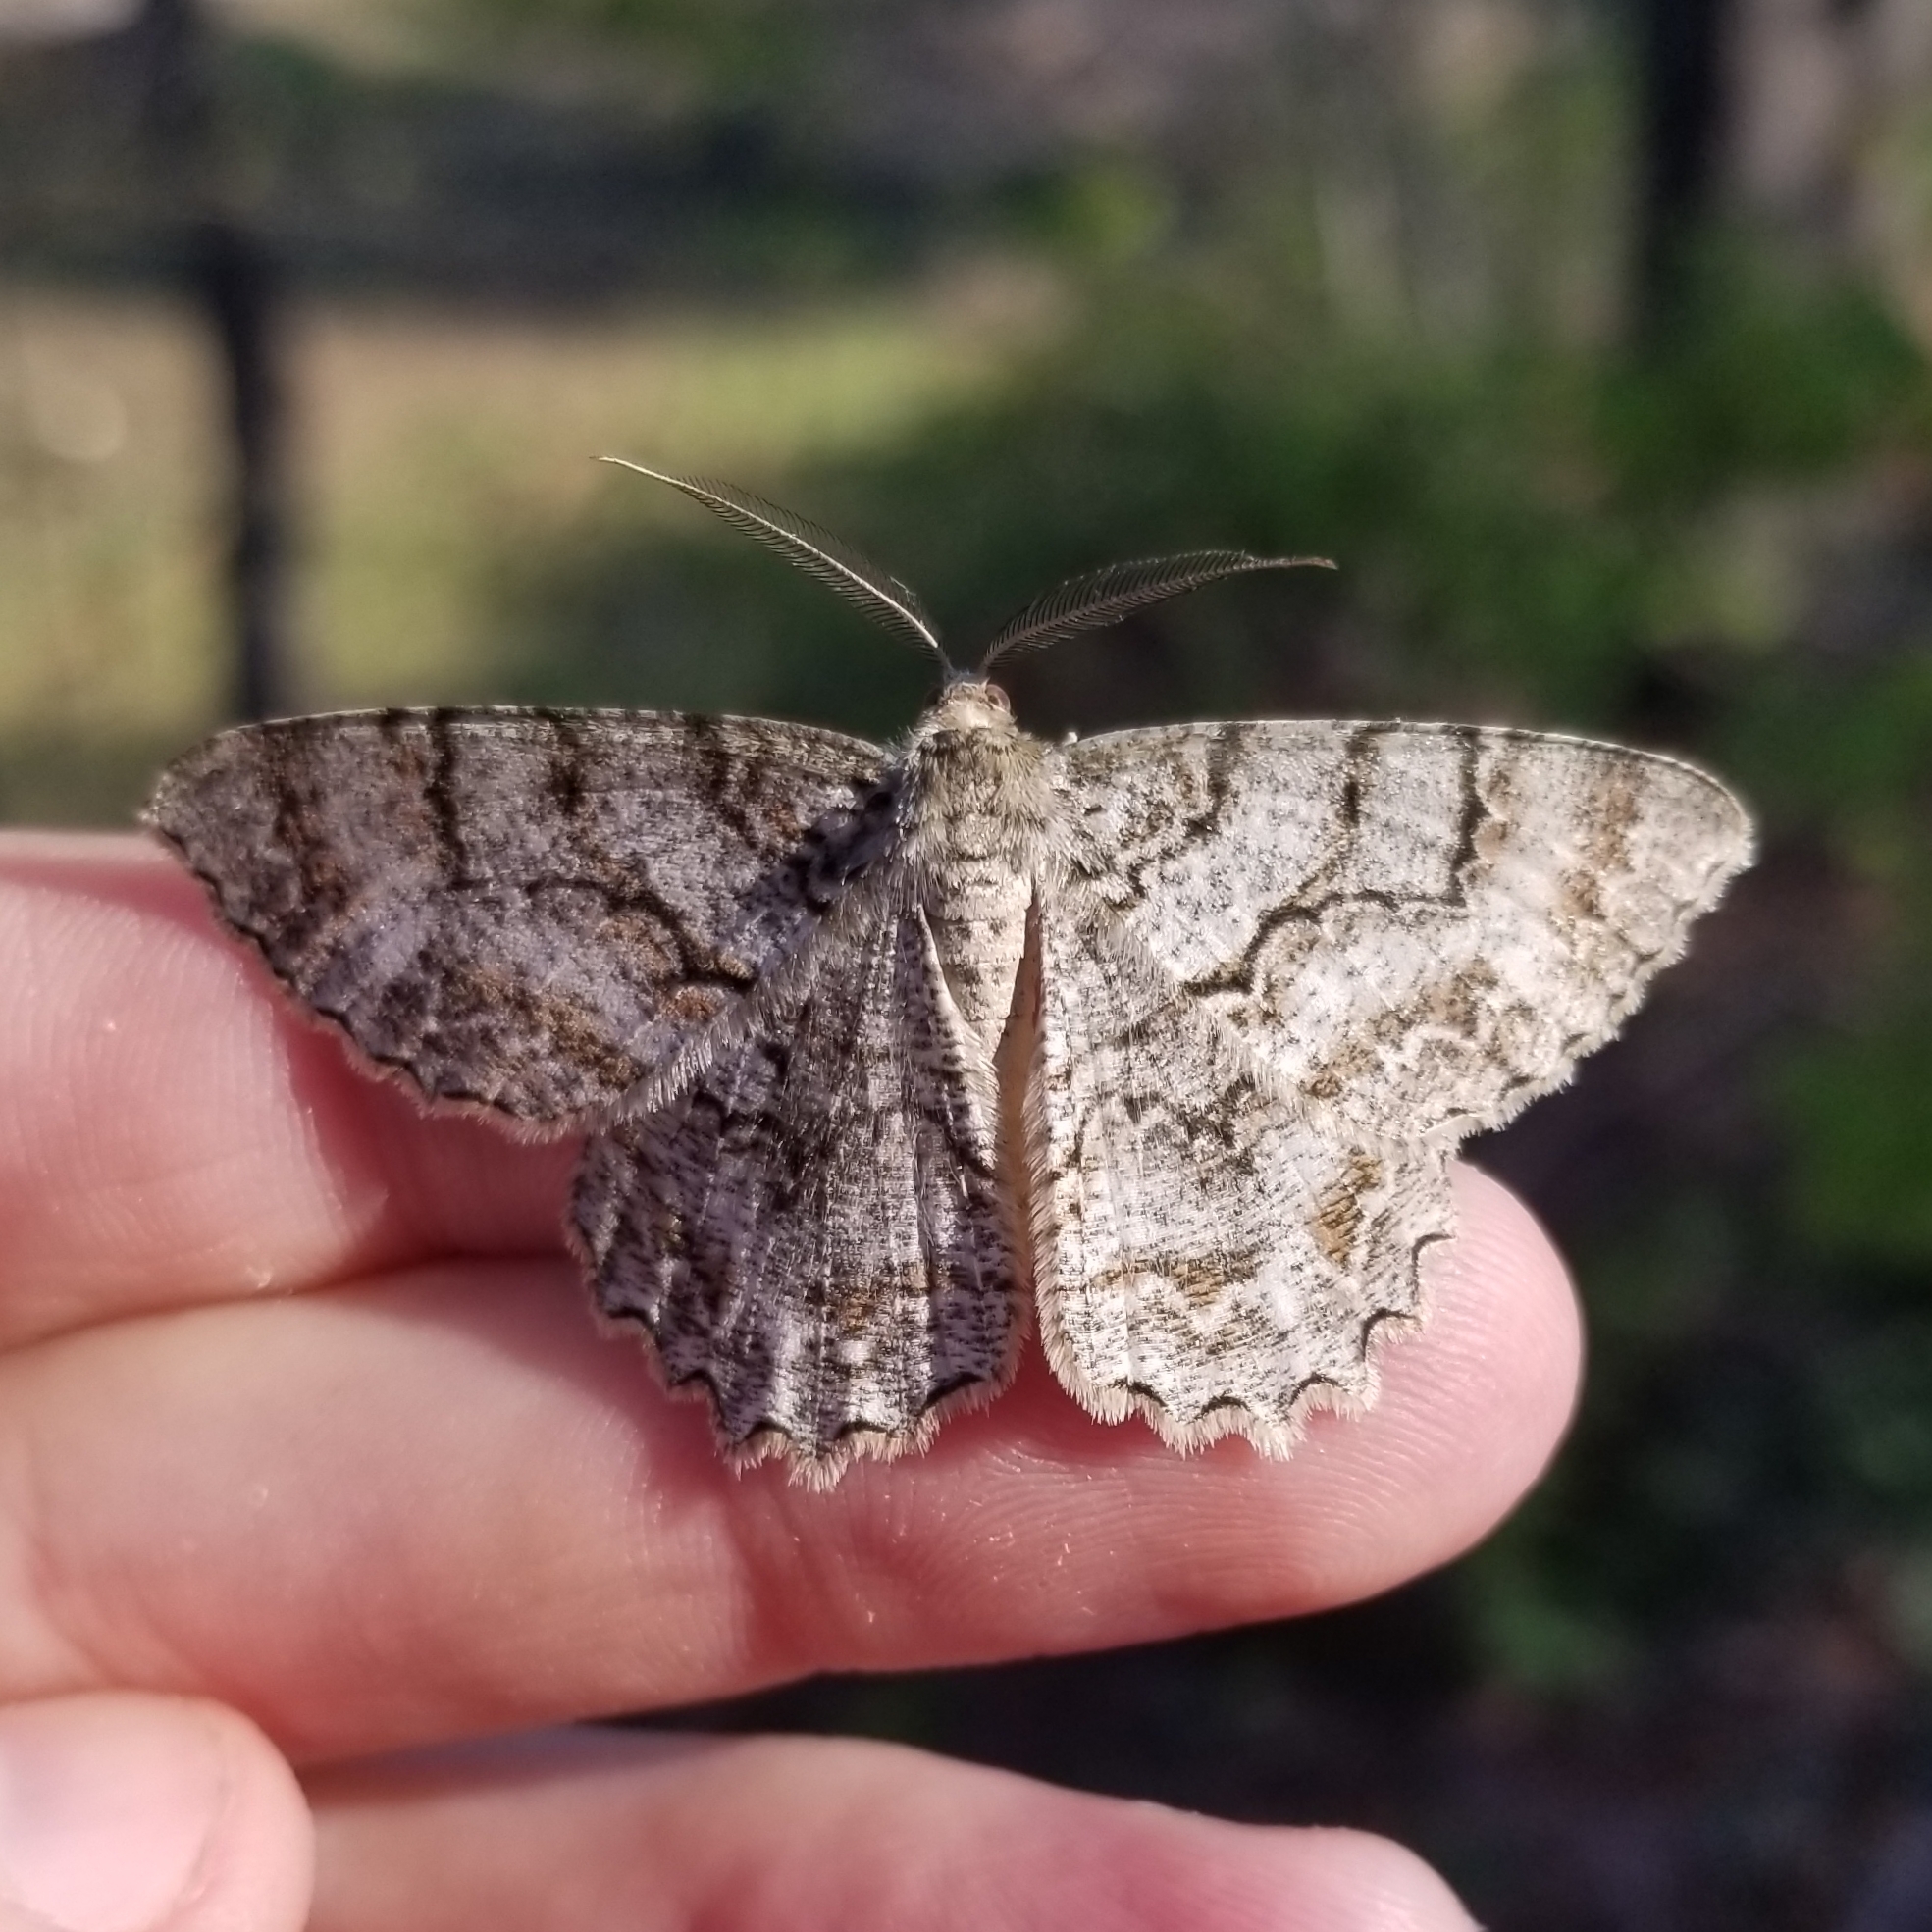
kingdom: Animalia
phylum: Arthropoda
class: Insecta
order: Lepidoptera
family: Geometridae
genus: Epimecis
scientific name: Epimecis hortaria
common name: Tulip-tree beauty
